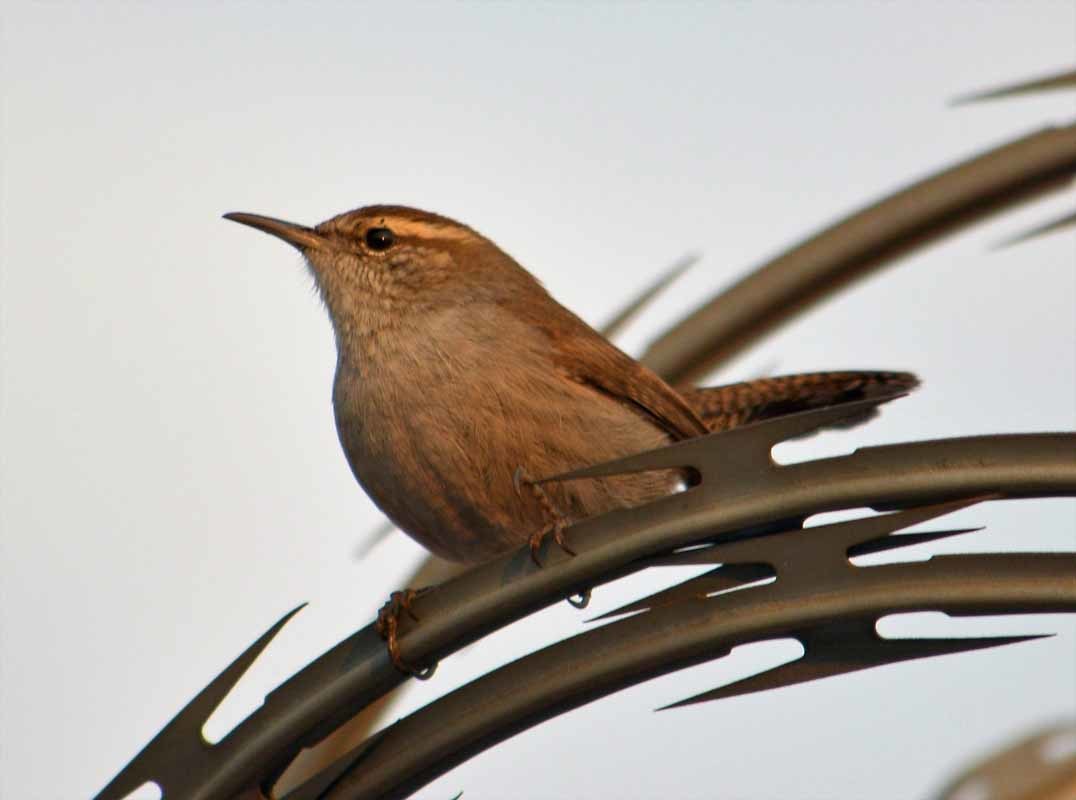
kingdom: Animalia
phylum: Chordata
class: Aves
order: Passeriformes
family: Troglodytidae
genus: Thryomanes
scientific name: Thryomanes bewickii
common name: Bewick's wren
